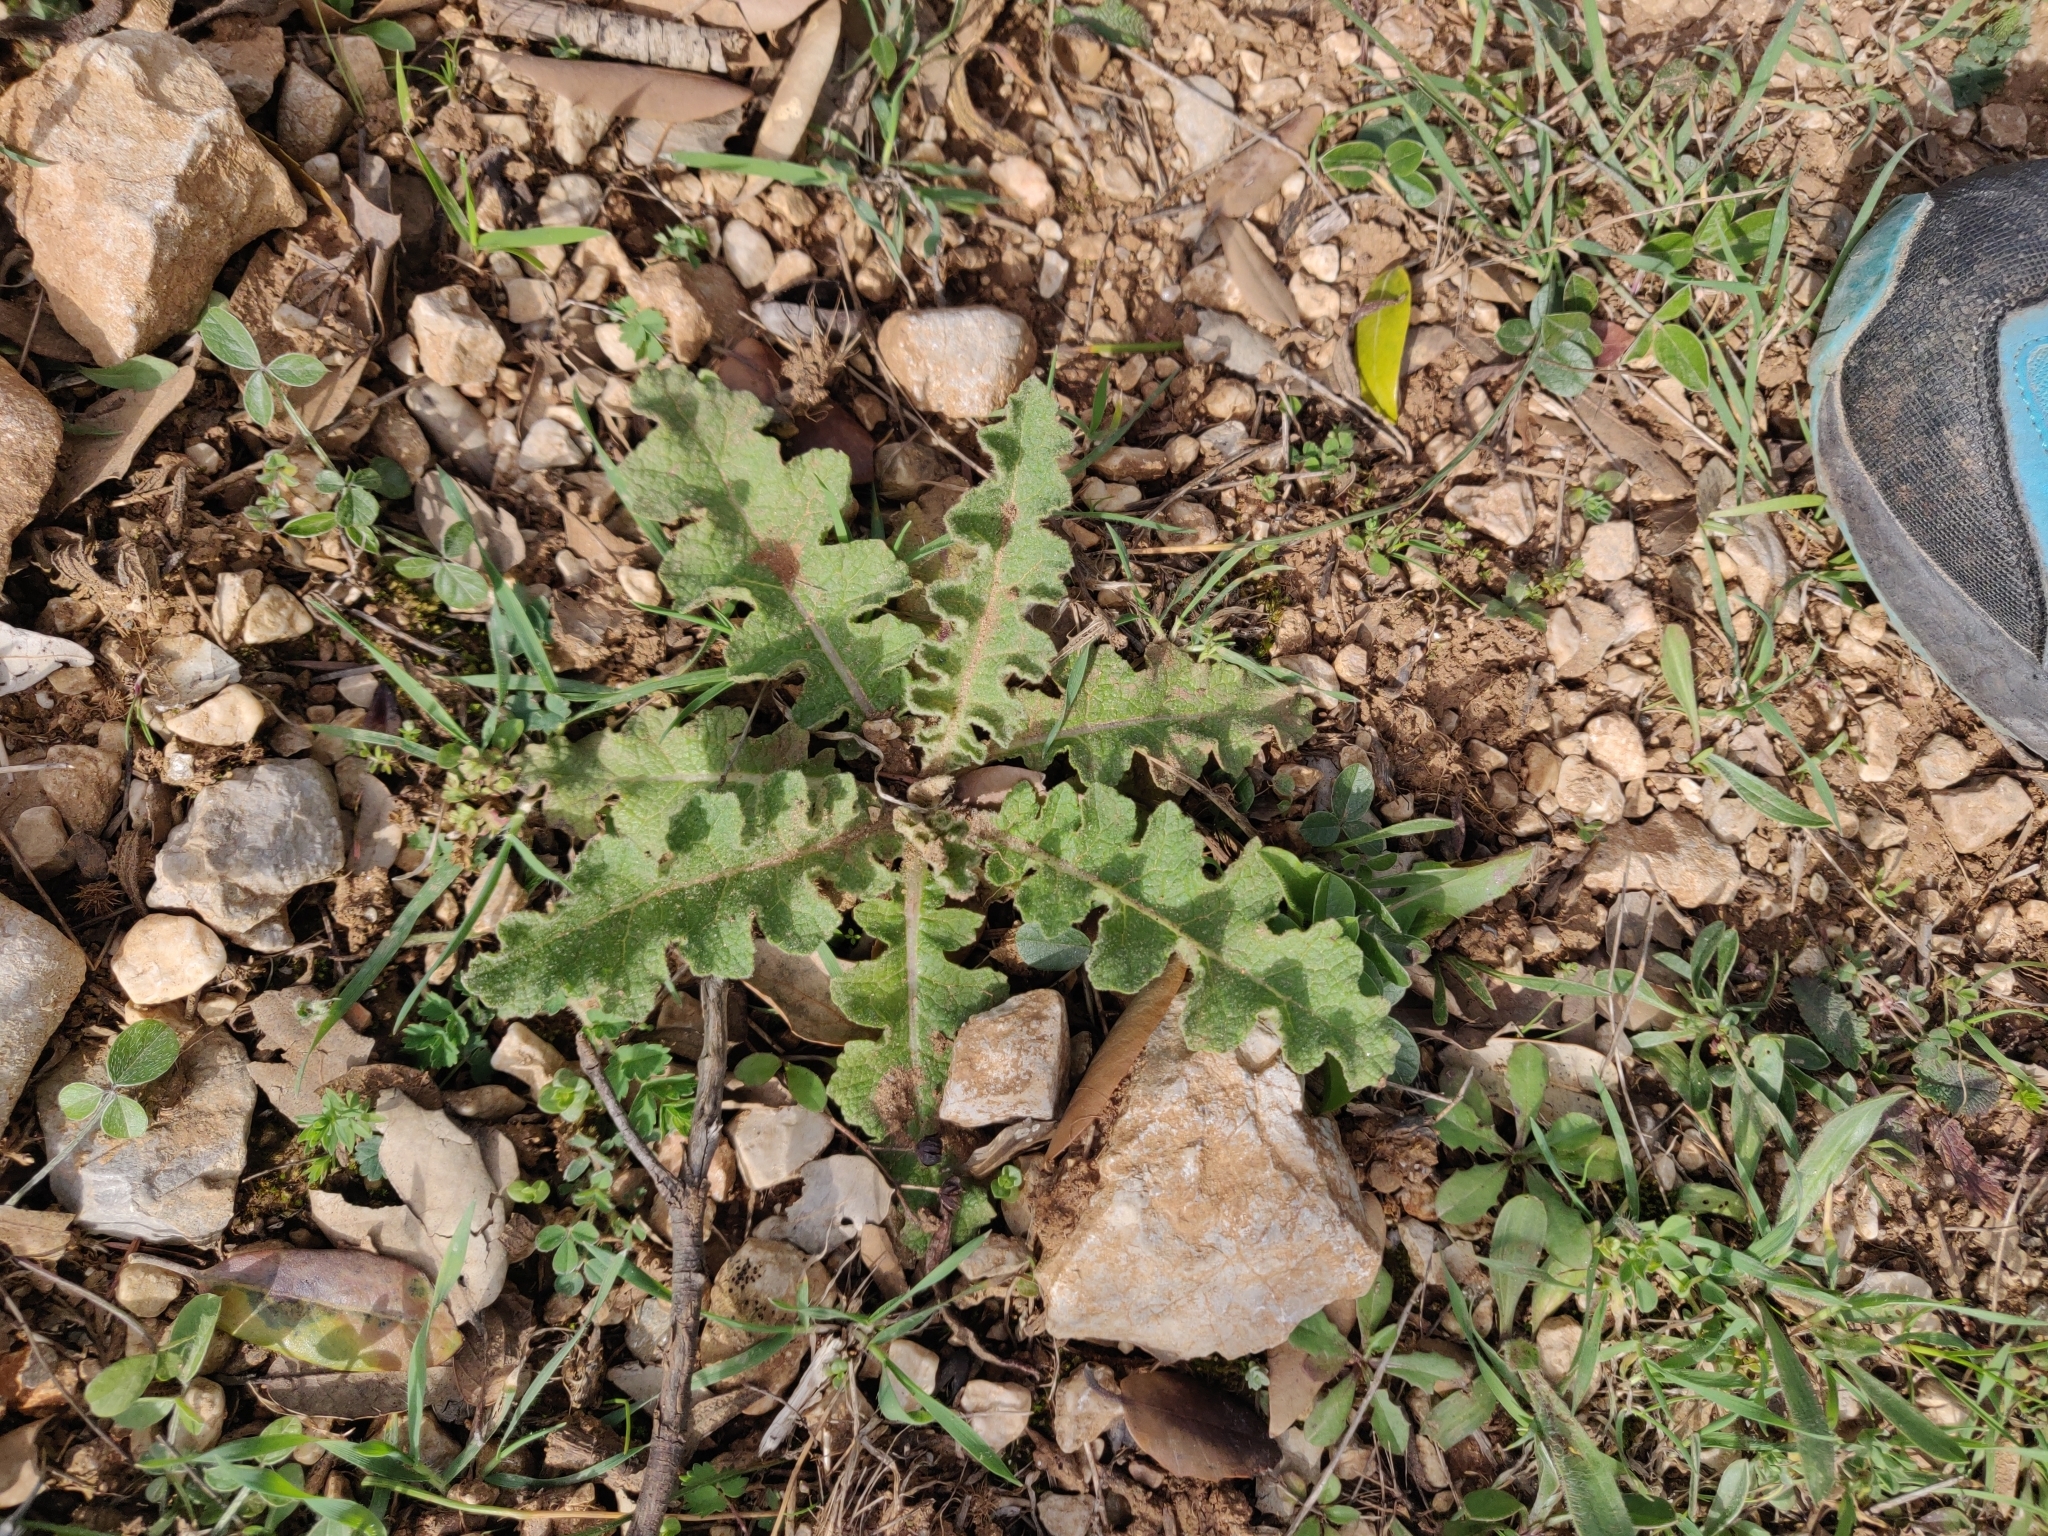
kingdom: Plantae
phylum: Tracheophyta
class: Magnoliopsida
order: Lamiales
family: Scrophulariaceae
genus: Verbascum
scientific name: Verbascum sinuatum
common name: Wavyleaf mullein
